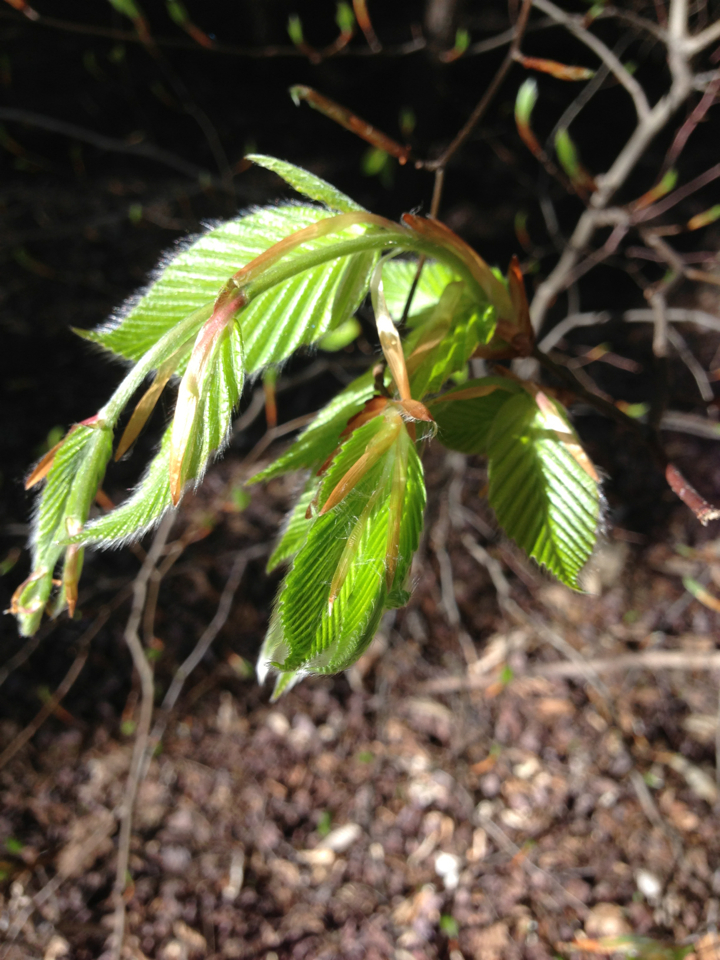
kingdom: Plantae
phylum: Tracheophyta
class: Magnoliopsida
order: Fagales
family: Fagaceae
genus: Fagus
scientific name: Fagus grandifolia
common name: American beech
